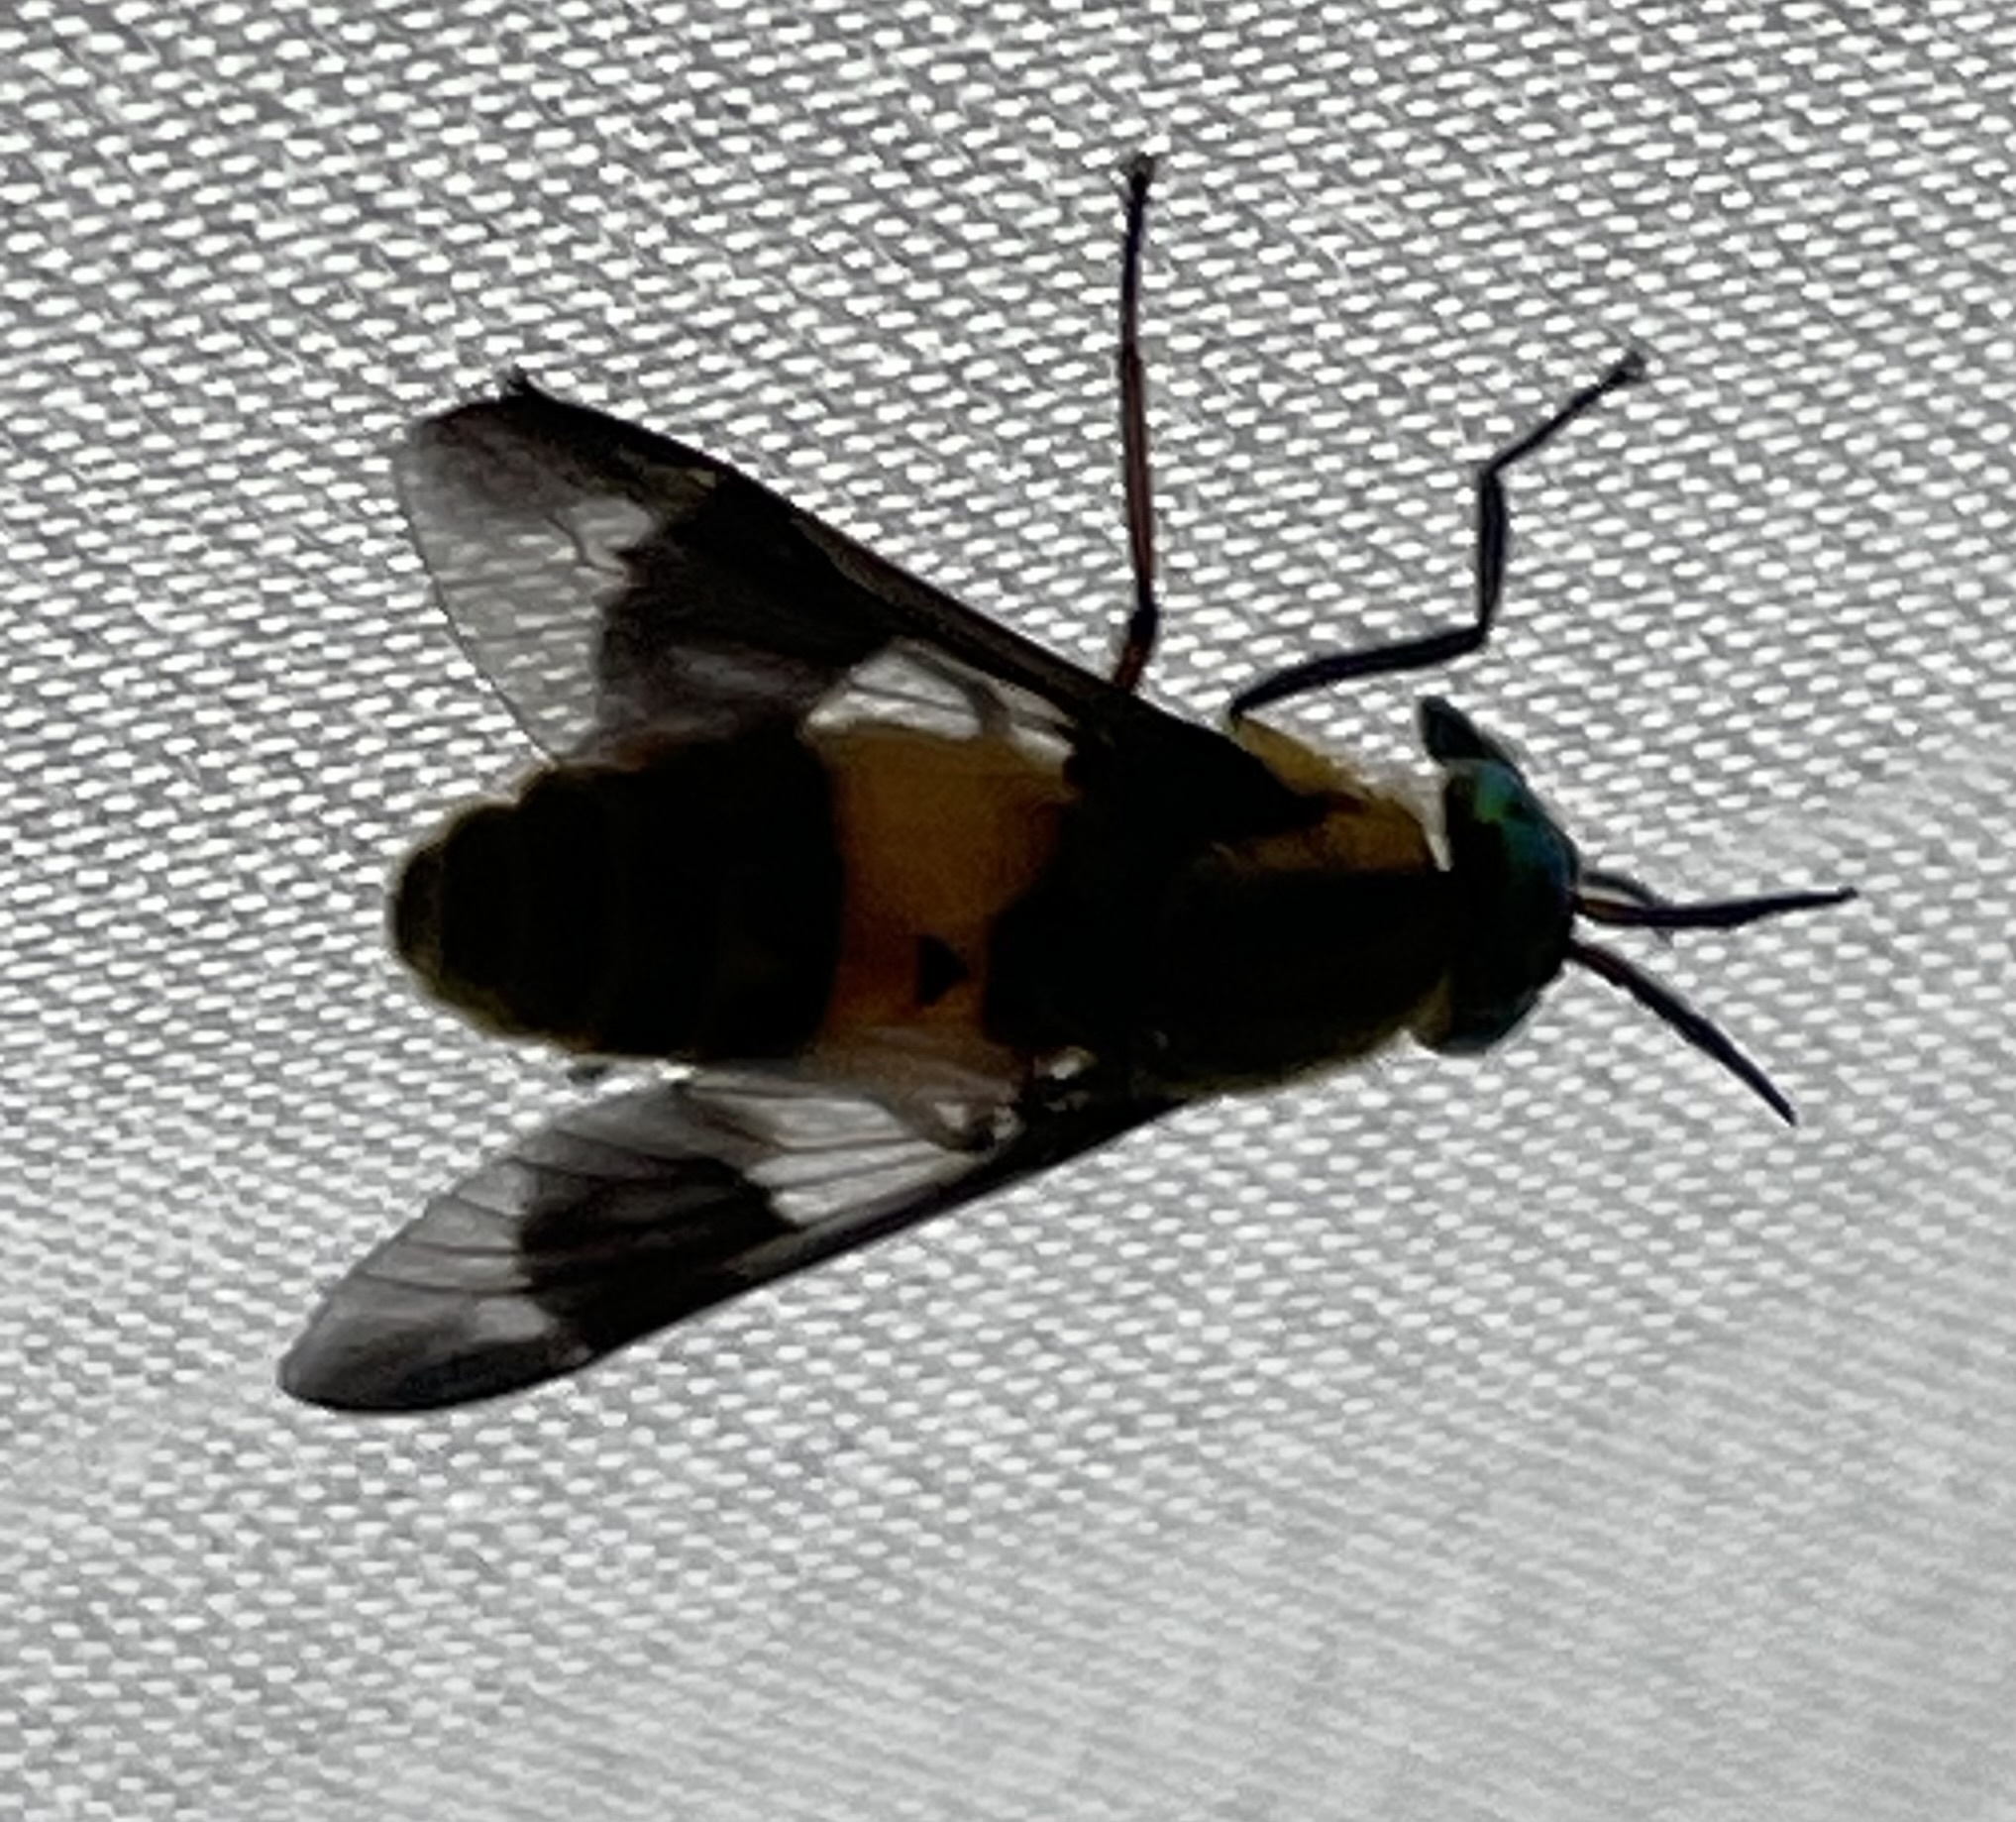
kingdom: Animalia
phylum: Arthropoda
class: Insecta
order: Diptera
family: Tabanidae
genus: Chrysops
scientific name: Chrysops viduatus
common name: Square-spot deerfly
